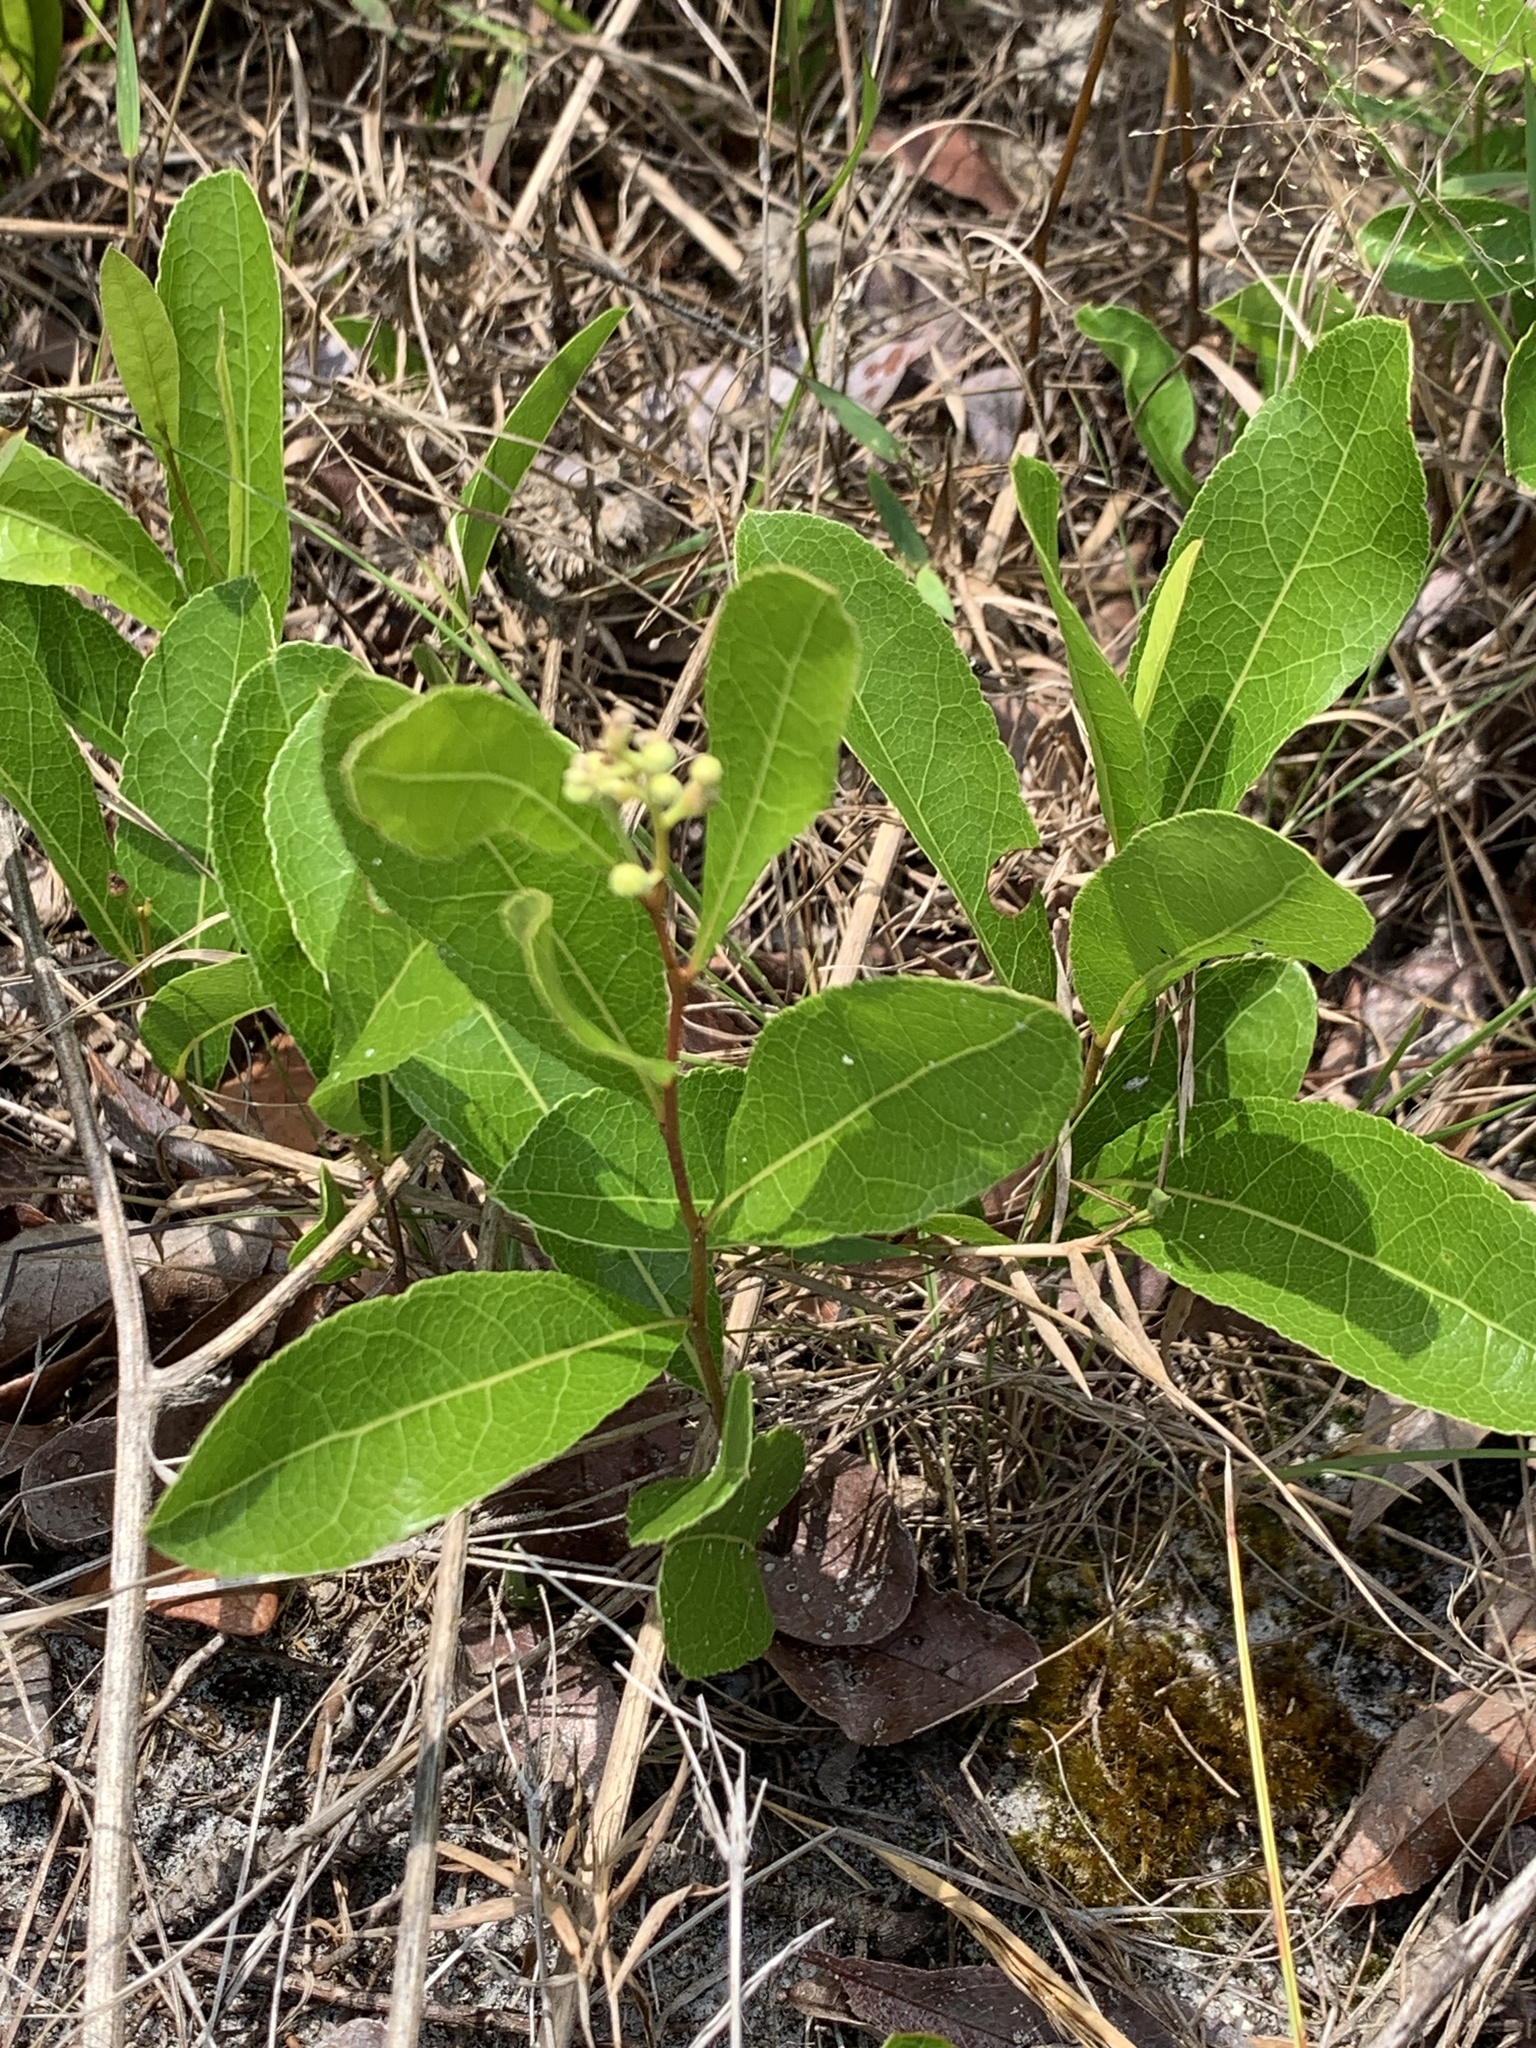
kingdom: Plantae
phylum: Tracheophyta
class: Magnoliopsida
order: Malpighiales
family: Chrysobalanaceae
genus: Geobalanus
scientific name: Geobalanus oblongifolius
